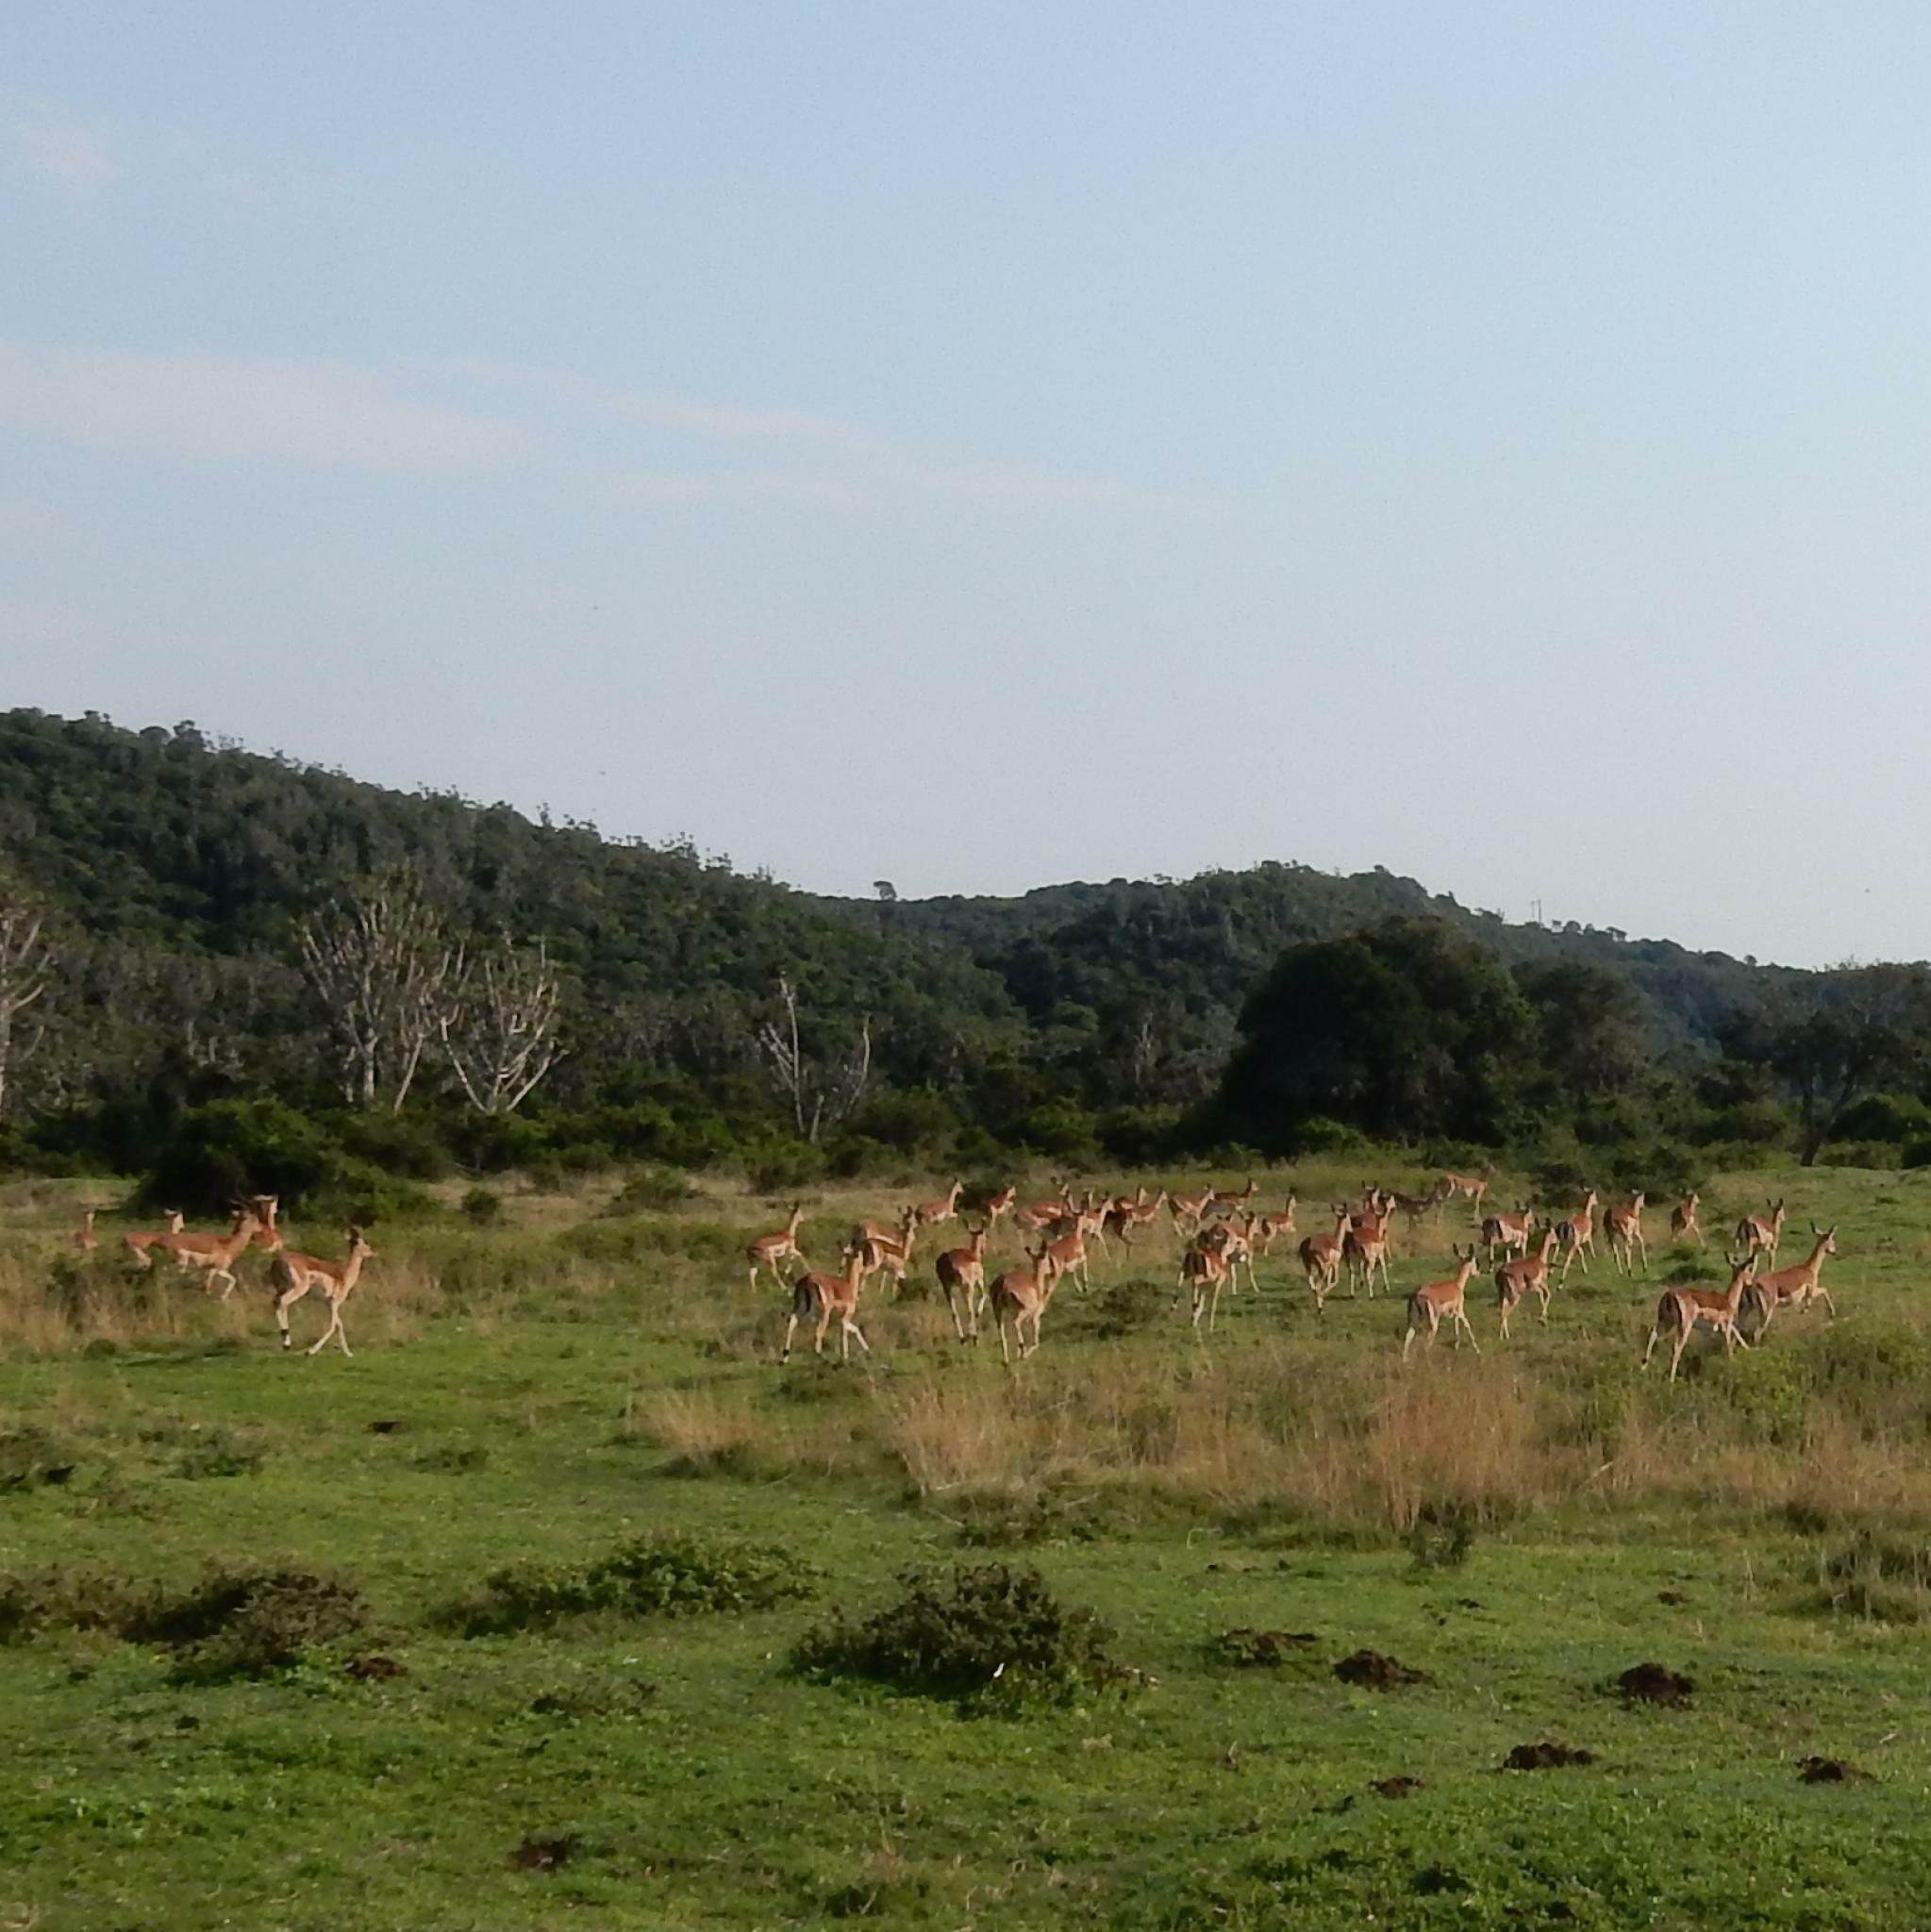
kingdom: Animalia
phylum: Chordata
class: Mammalia
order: Artiodactyla
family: Bovidae
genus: Aepyceros
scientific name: Aepyceros melampus
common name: Impala
